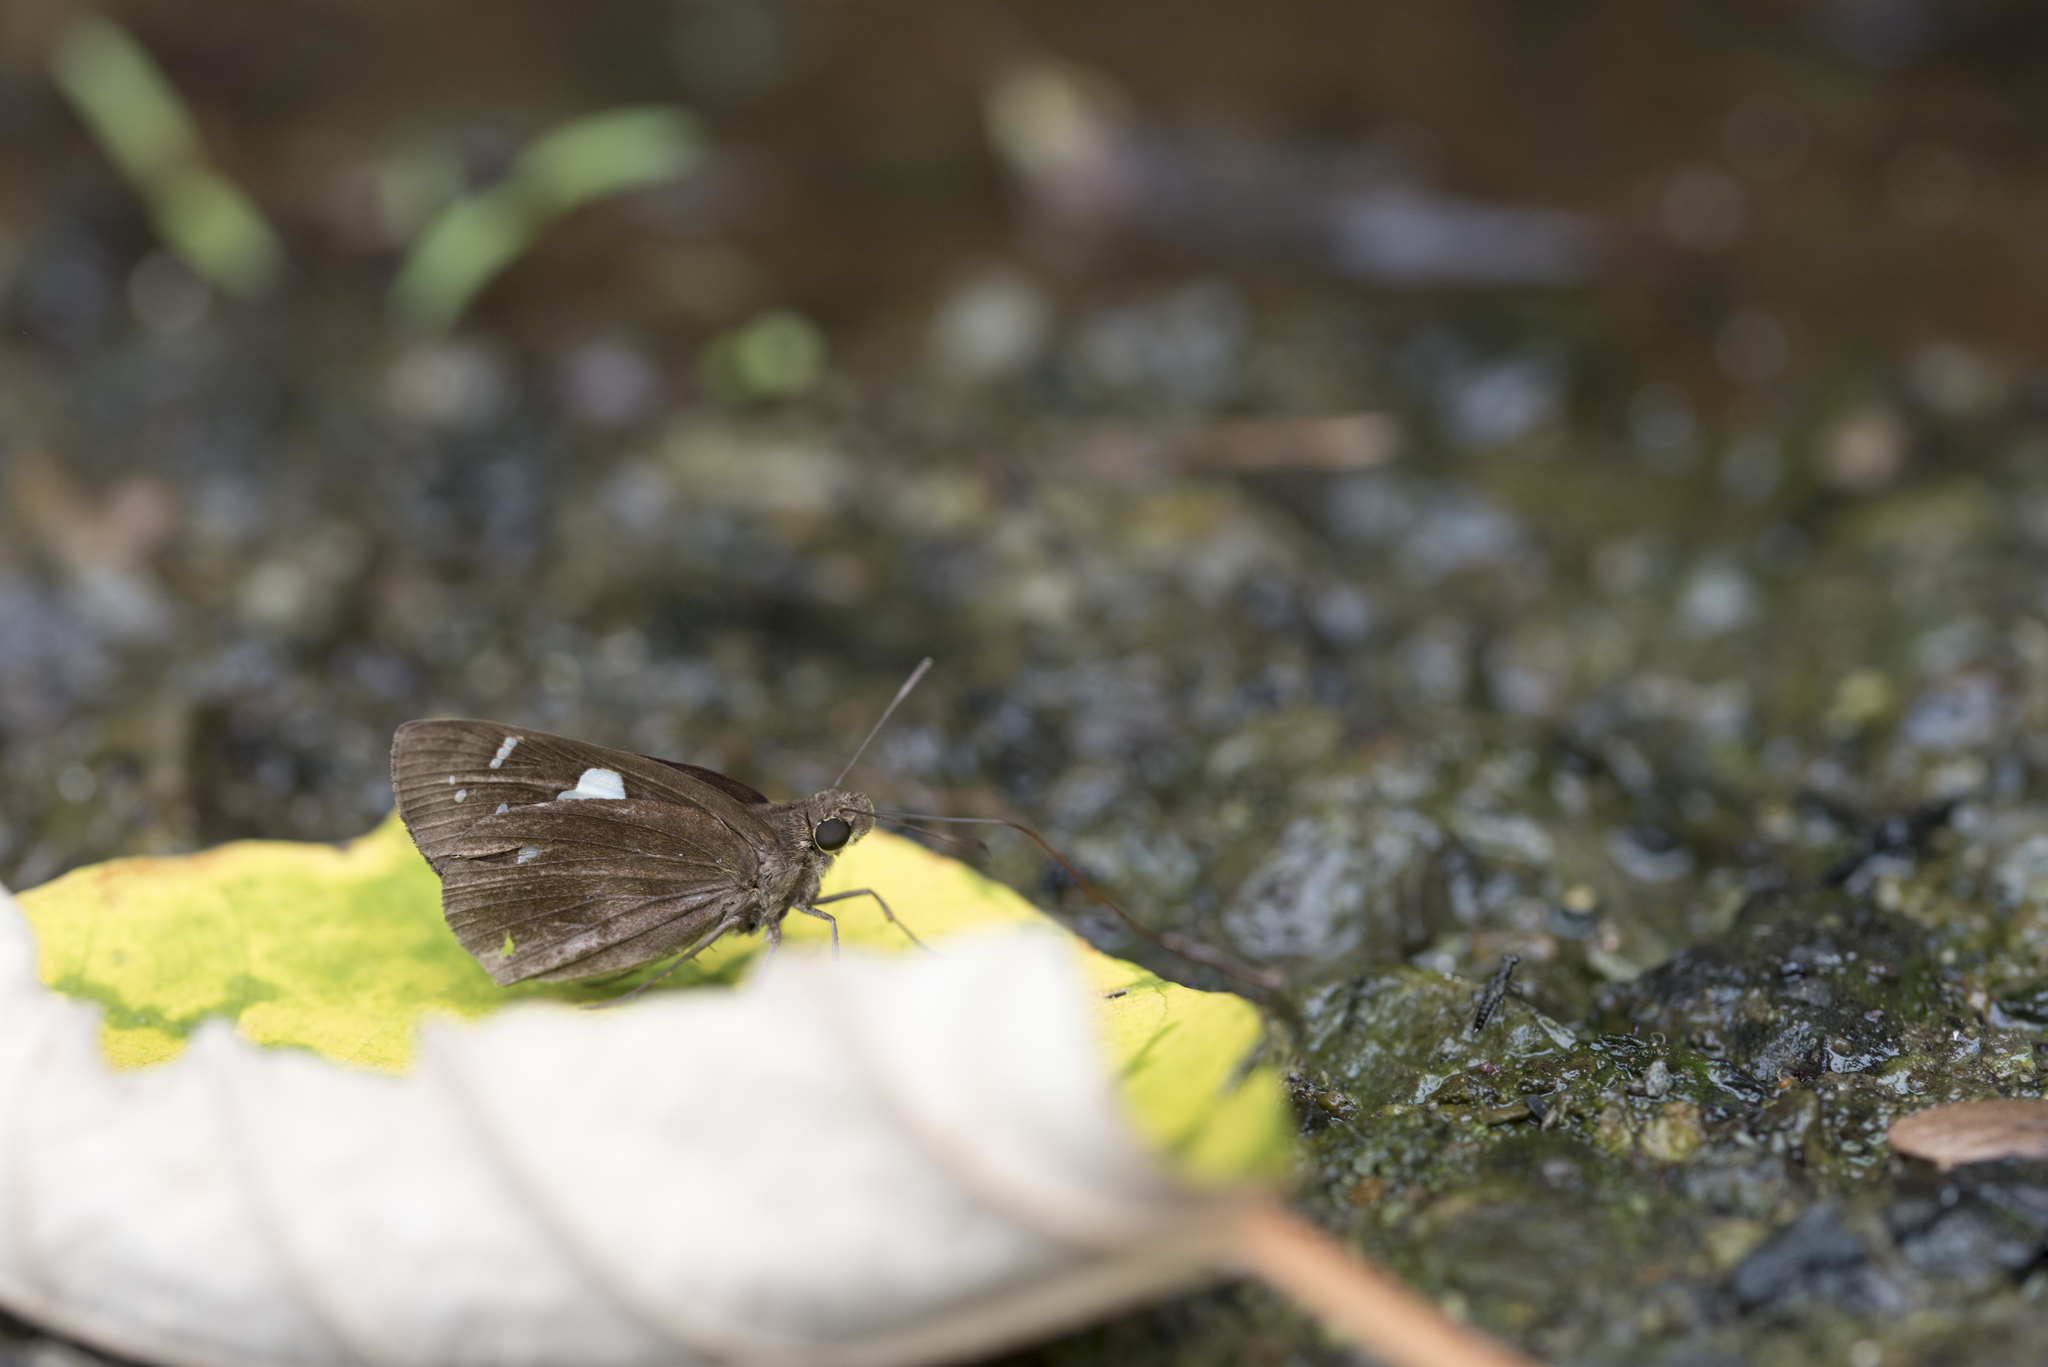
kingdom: Animalia
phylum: Arthropoda
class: Insecta
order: Lepidoptera
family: Hesperiidae
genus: Notocrypta
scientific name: Notocrypta curvifascia
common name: Restricted demon
